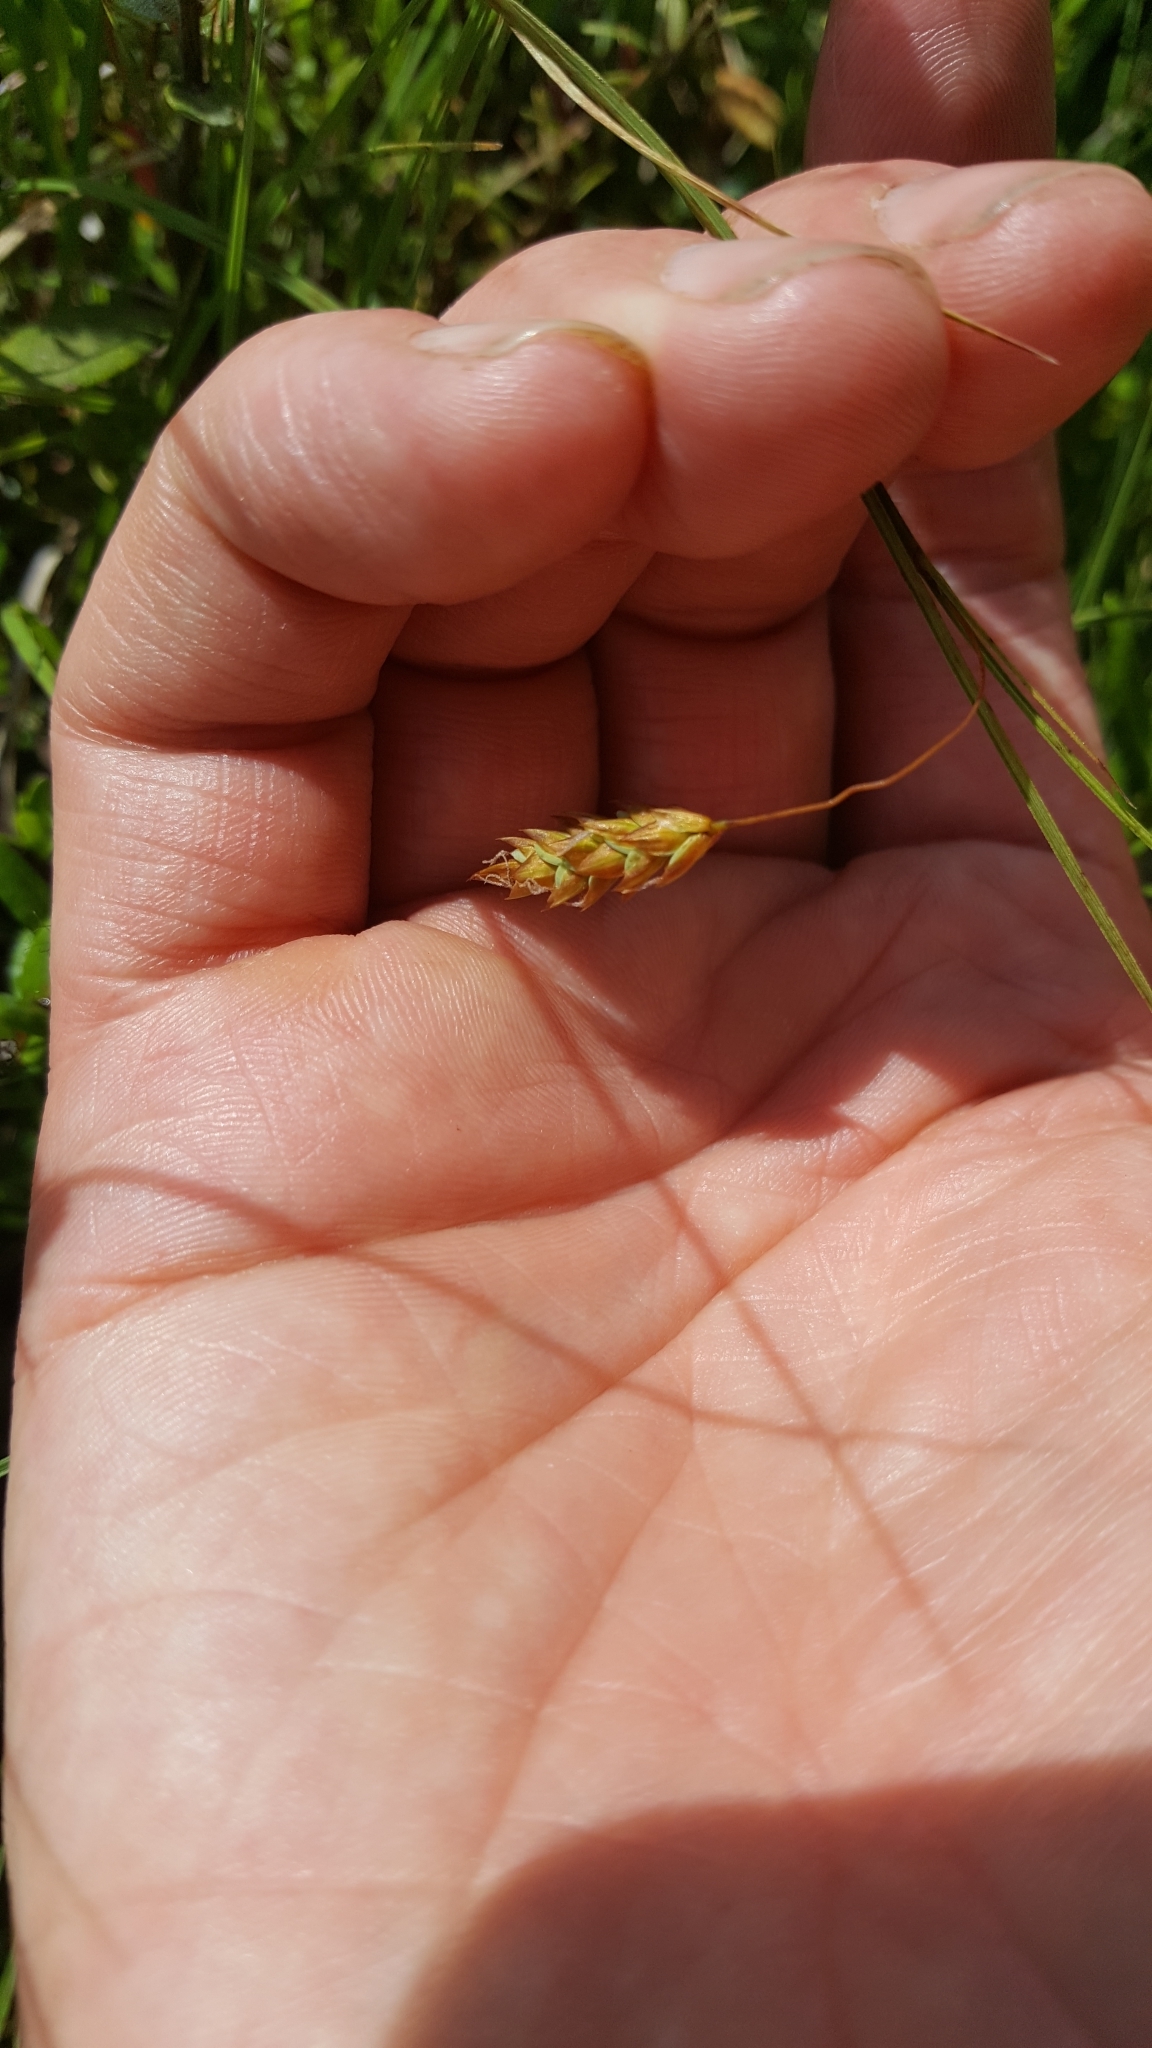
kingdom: Plantae
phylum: Tracheophyta
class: Liliopsida
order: Poales
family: Cyperaceae
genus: Carex
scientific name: Carex limosa
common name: Bog sedge
